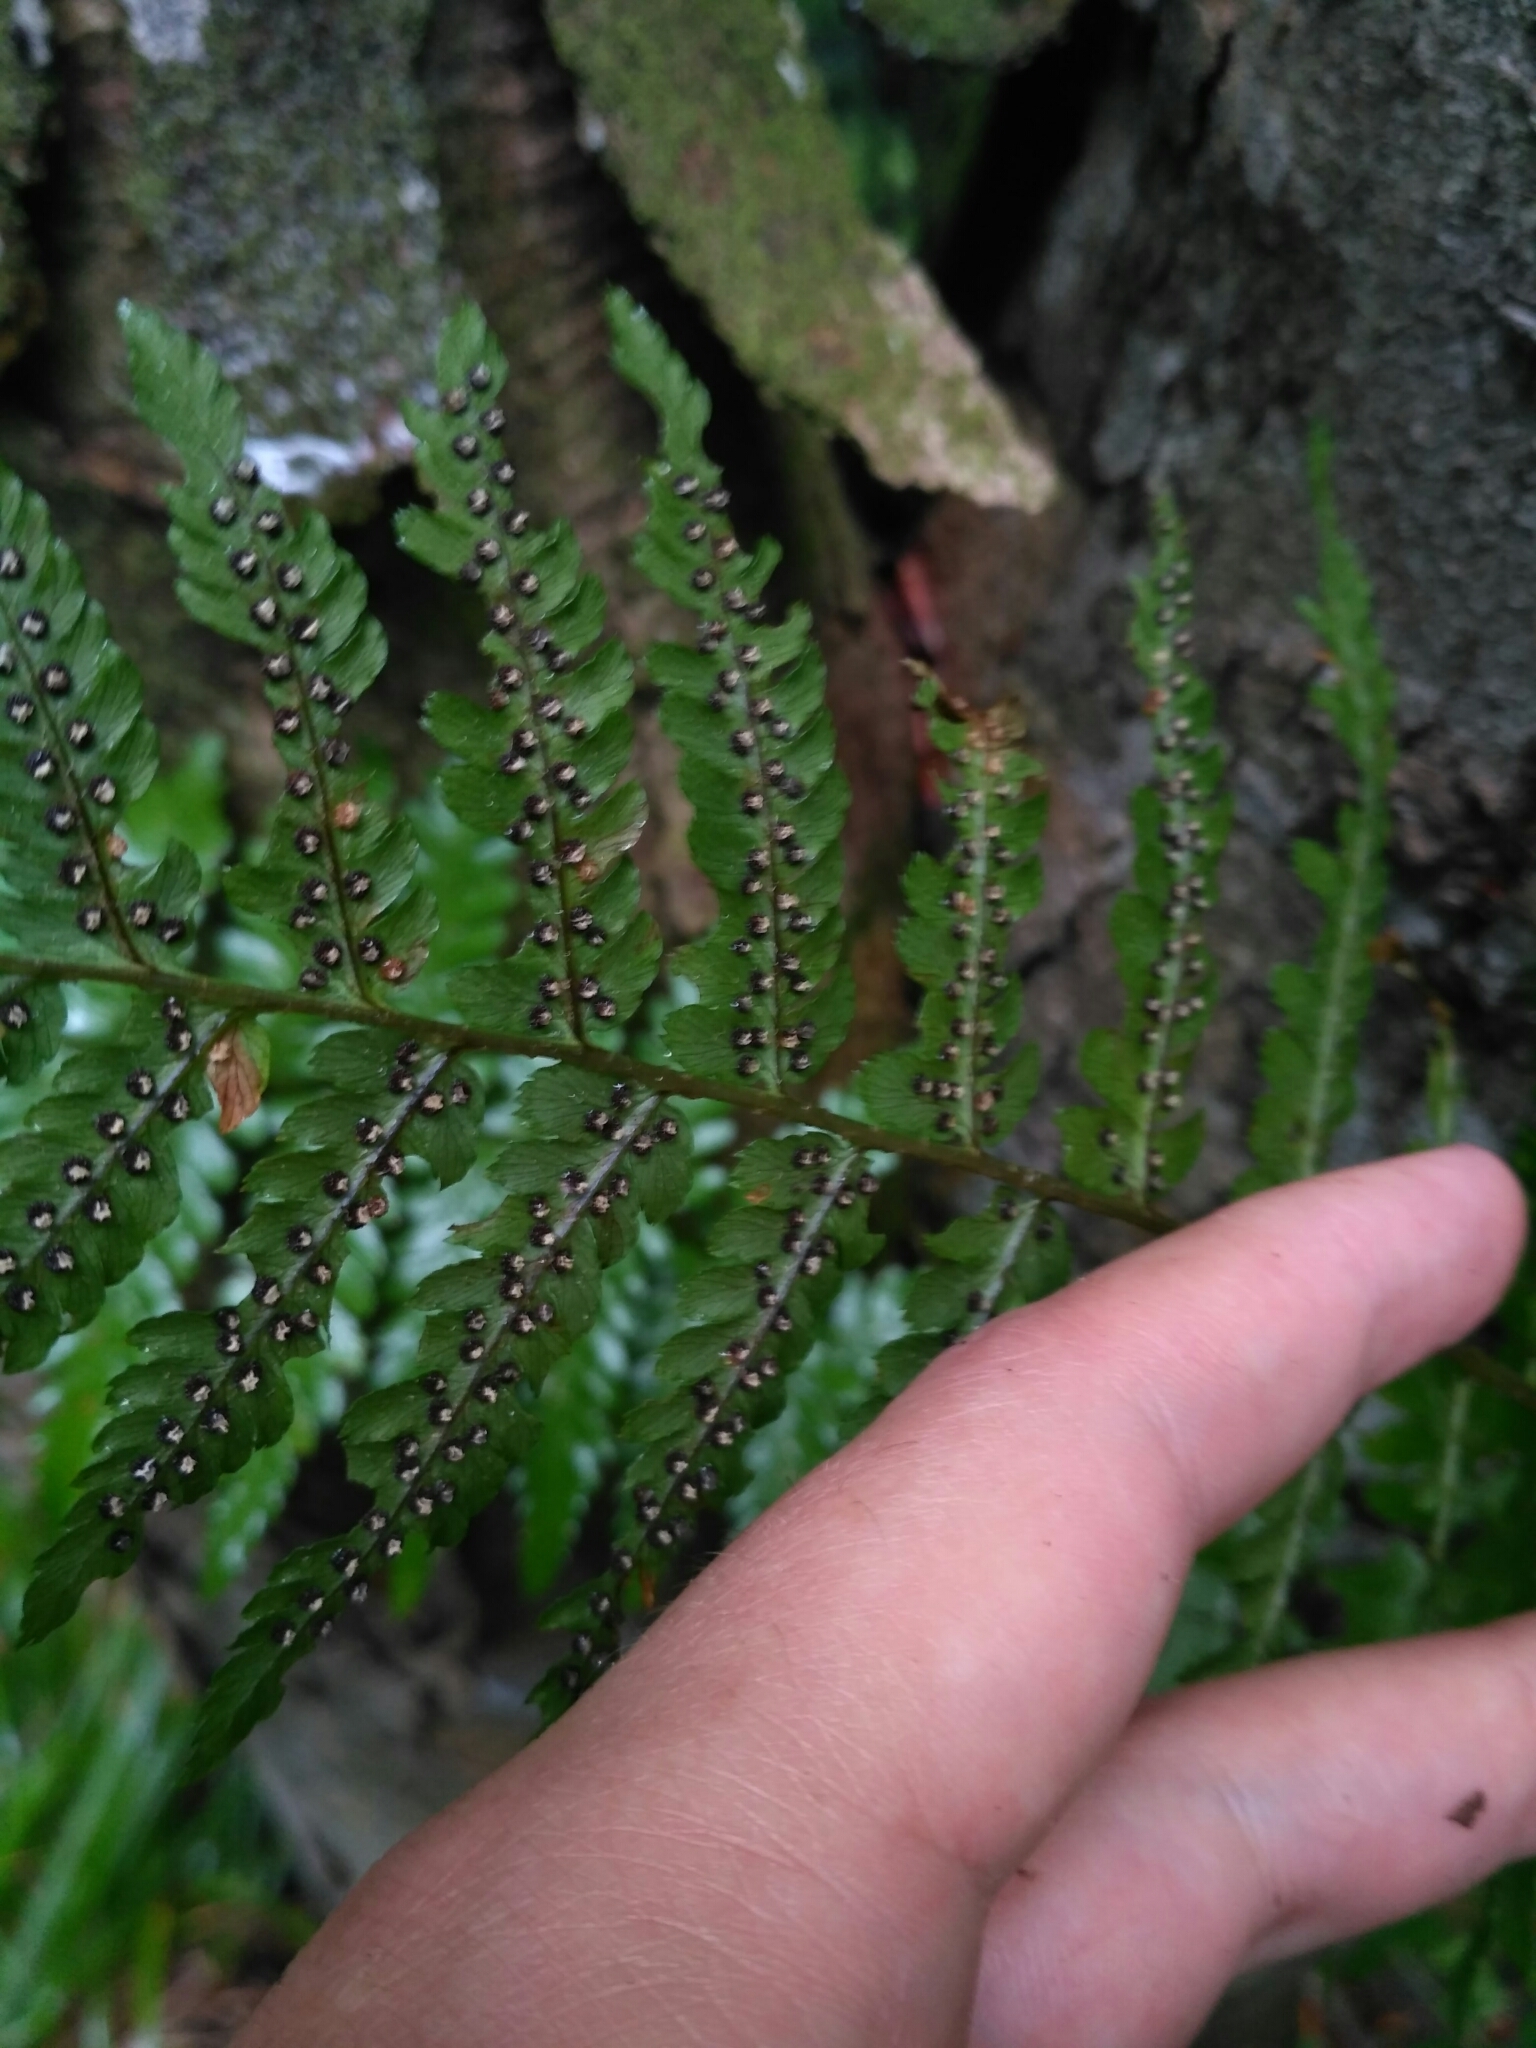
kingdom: Plantae
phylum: Tracheophyta
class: Polypodiopsida
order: Polypodiales
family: Dryopteridaceae
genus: Dryopteris
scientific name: Dryopteris filix-mas
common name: Male fern
